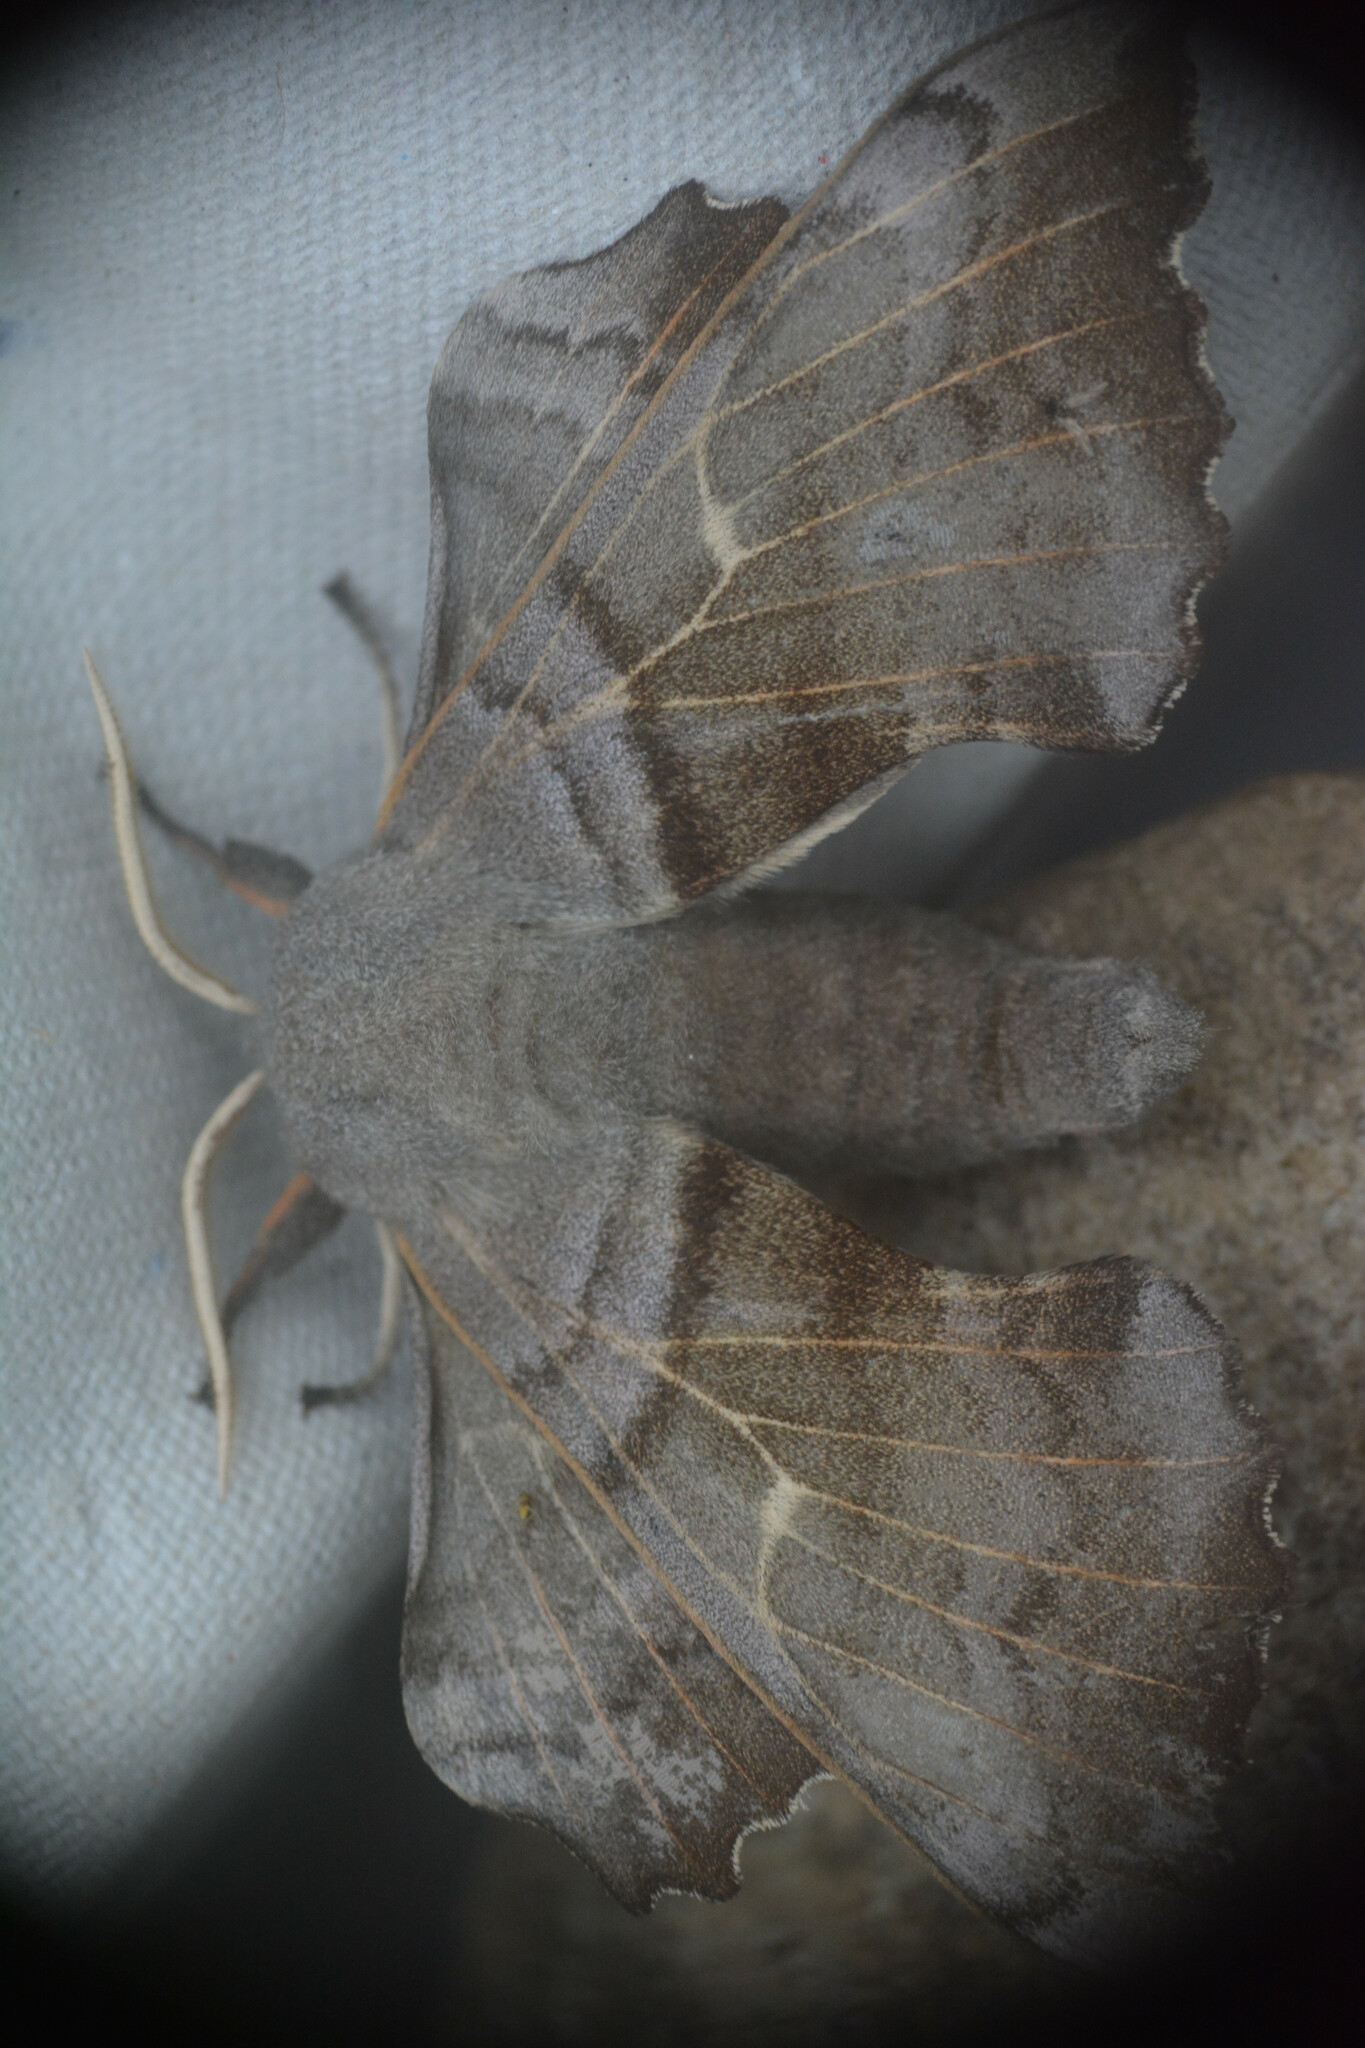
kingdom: Animalia
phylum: Arthropoda
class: Insecta
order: Lepidoptera
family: Sphingidae
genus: Laothoe
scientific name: Laothoe populi
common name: Poplar hawk-moth
